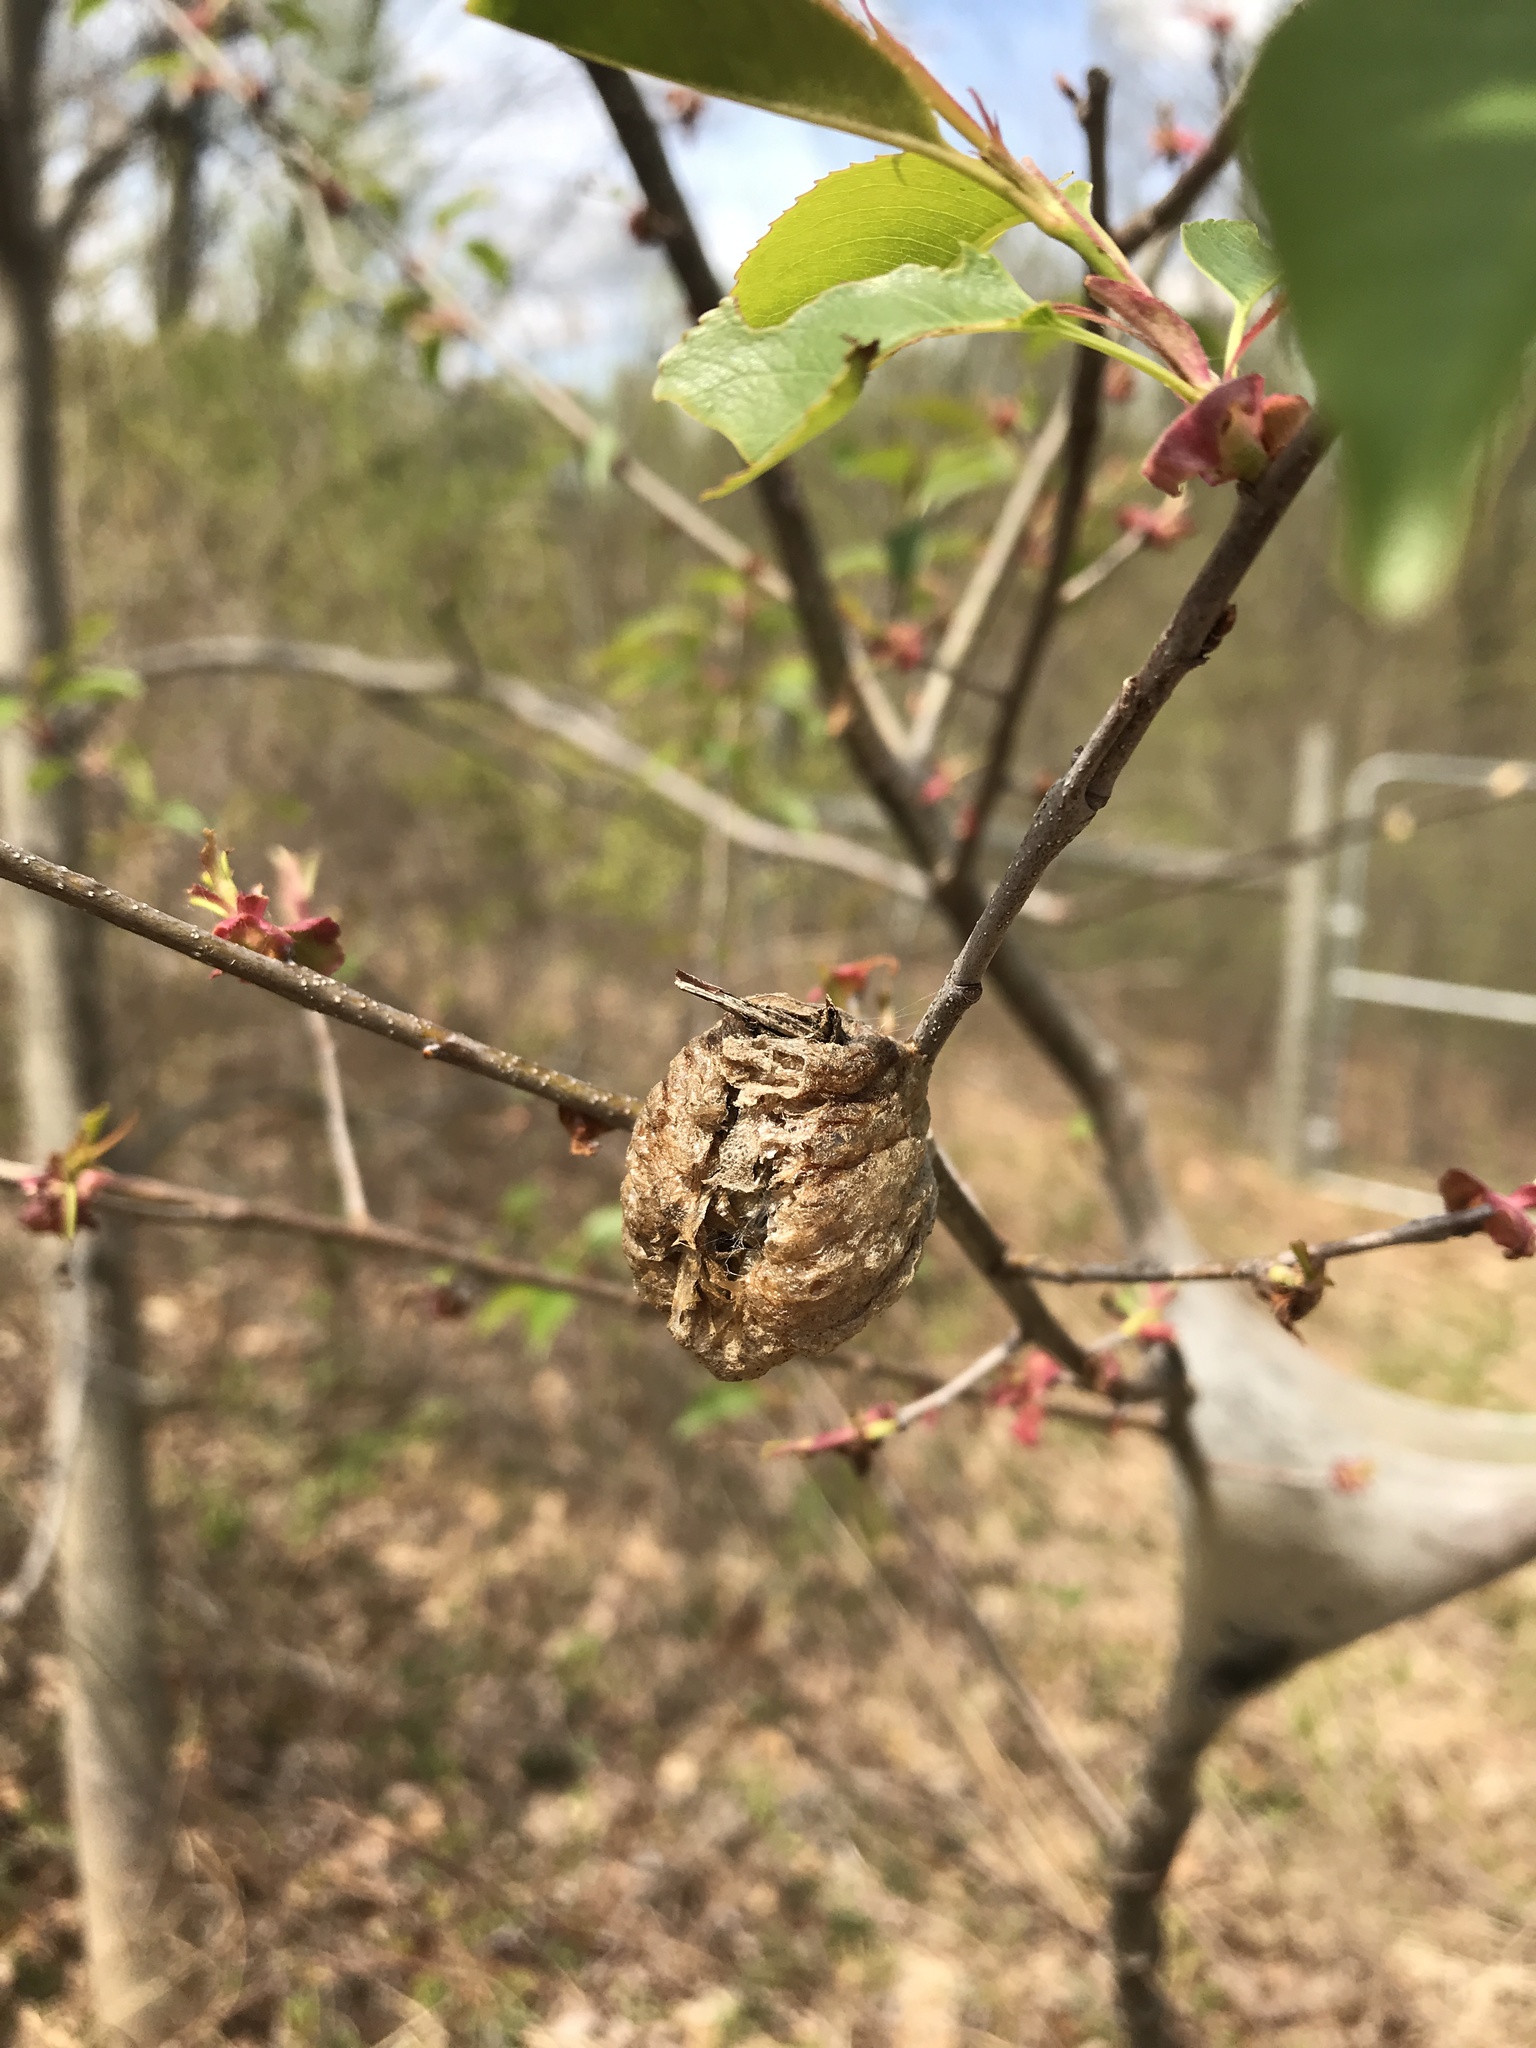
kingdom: Animalia
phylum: Arthropoda
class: Insecta
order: Mantodea
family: Mantidae
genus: Tenodera
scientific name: Tenodera sinensis
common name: Chinese mantis
